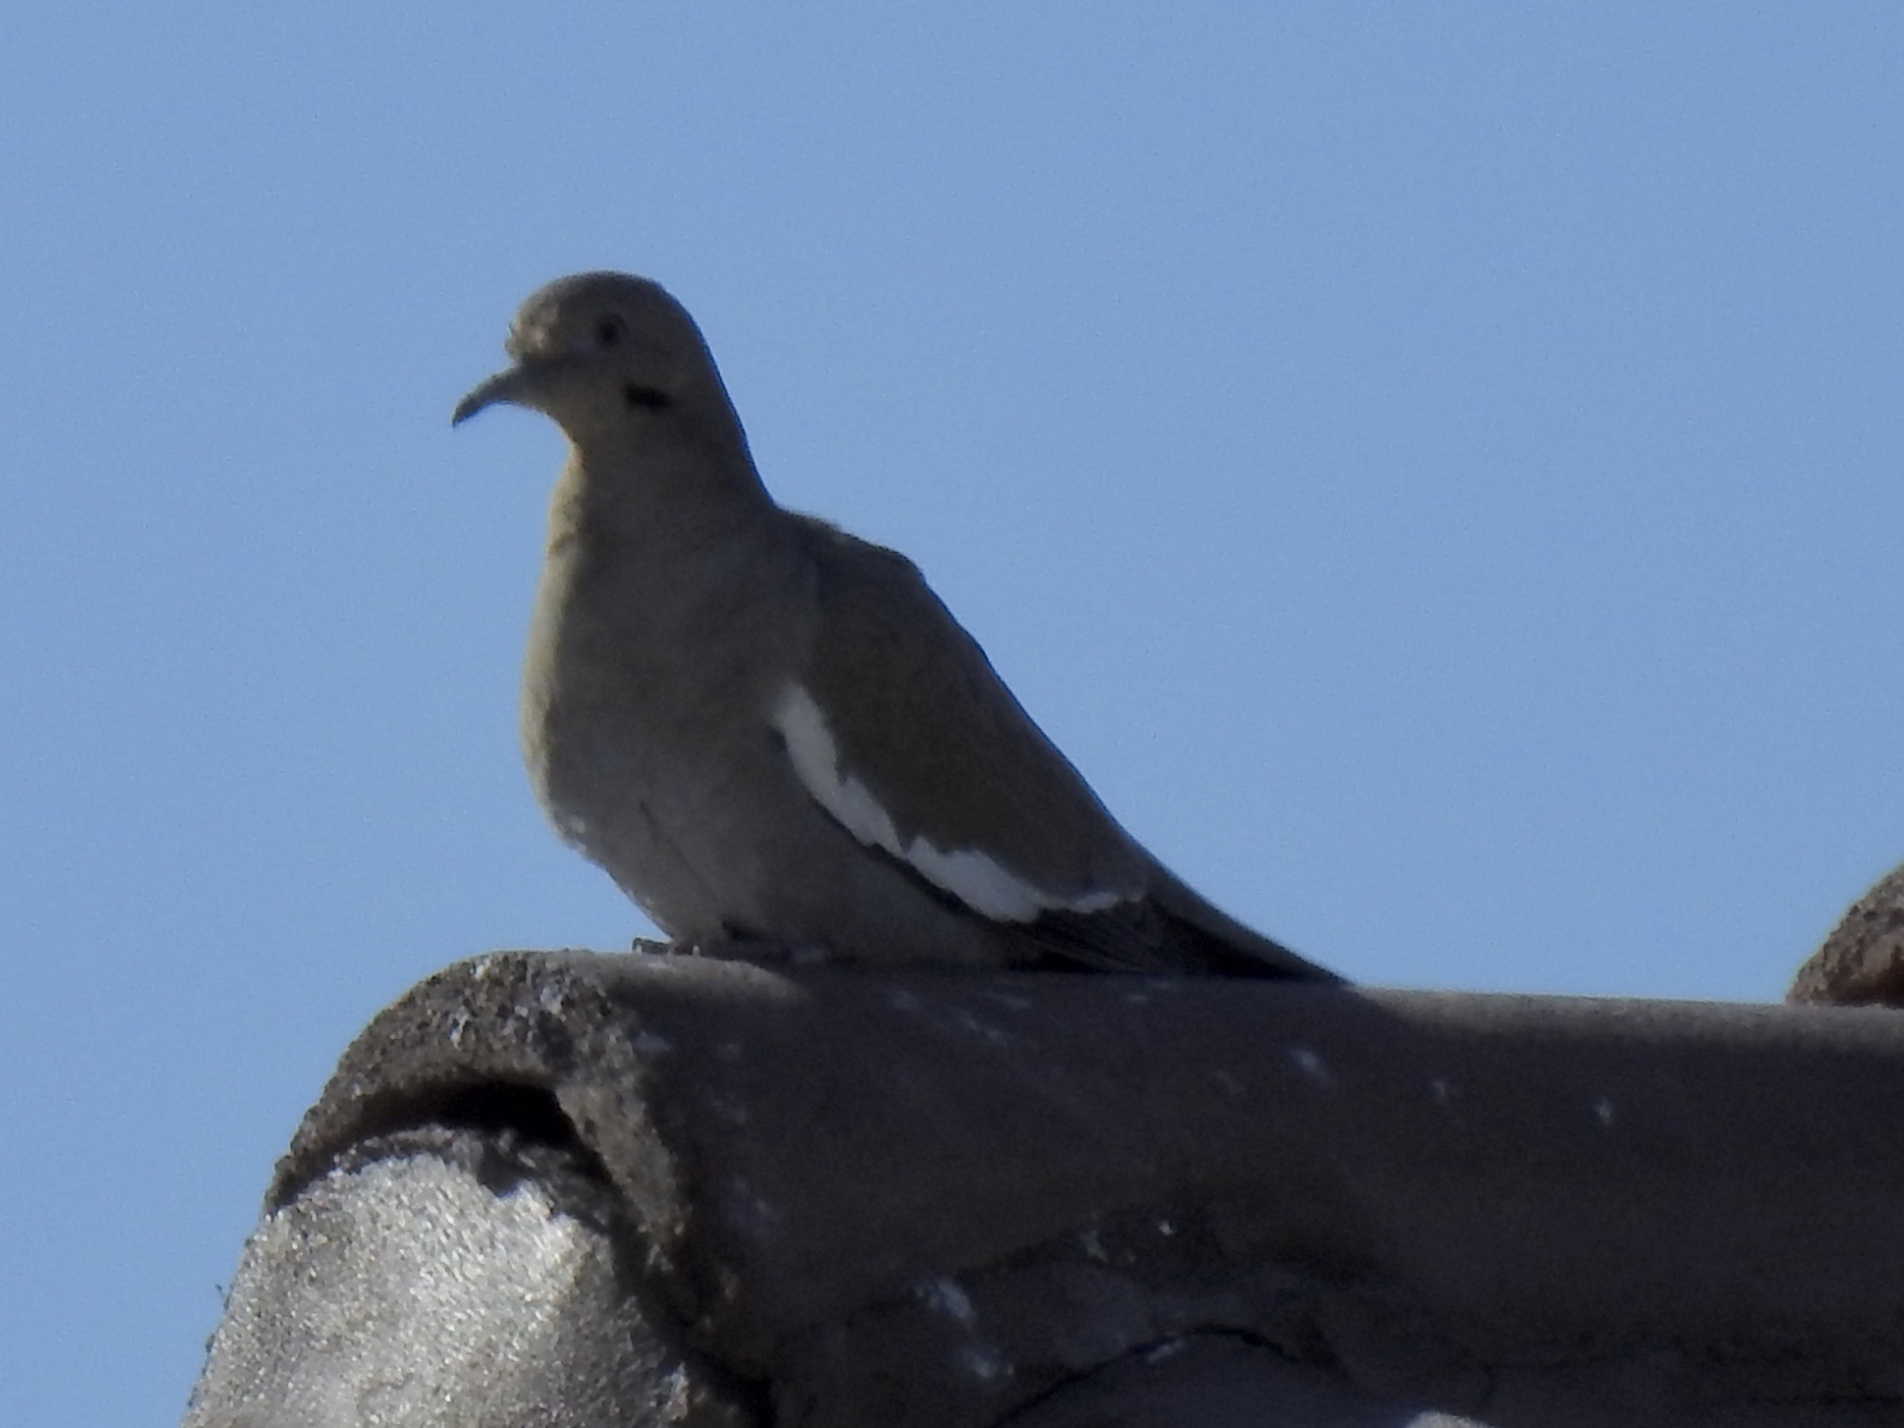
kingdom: Animalia
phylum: Chordata
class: Aves
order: Columbiformes
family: Columbidae
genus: Zenaida
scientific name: Zenaida asiatica
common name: White-winged dove
